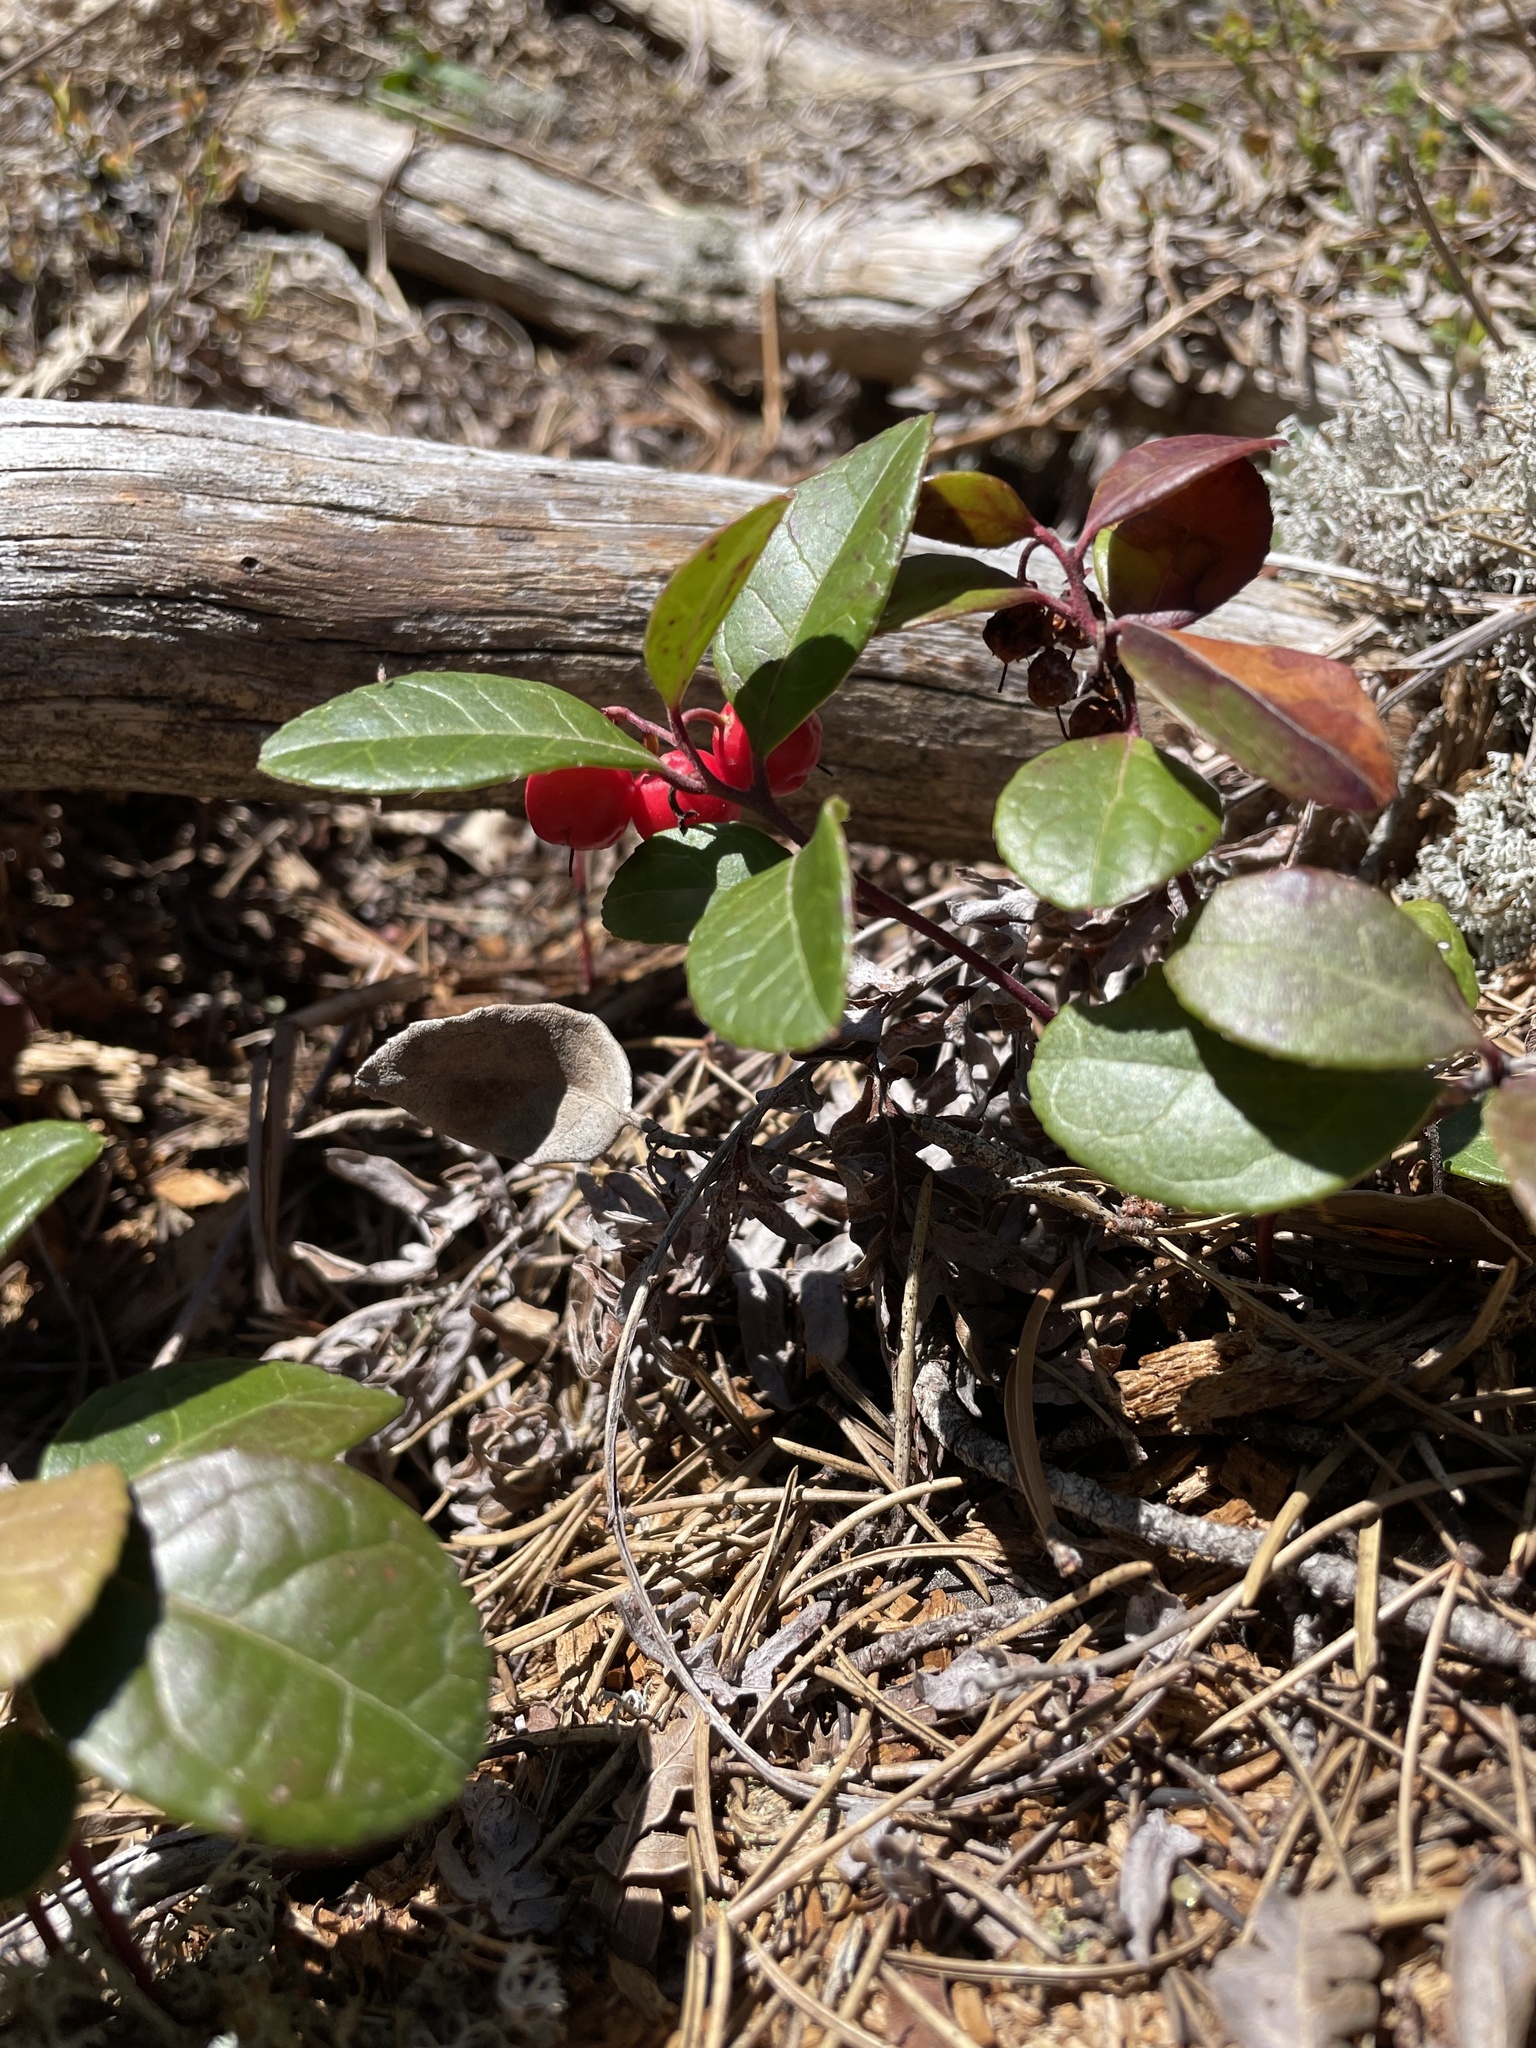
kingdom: Plantae
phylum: Tracheophyta
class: Magnoliopsida
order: Ericales
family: Ericaceae
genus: Gaultheria
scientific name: Gaultheria procumbens
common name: Checkerberry
